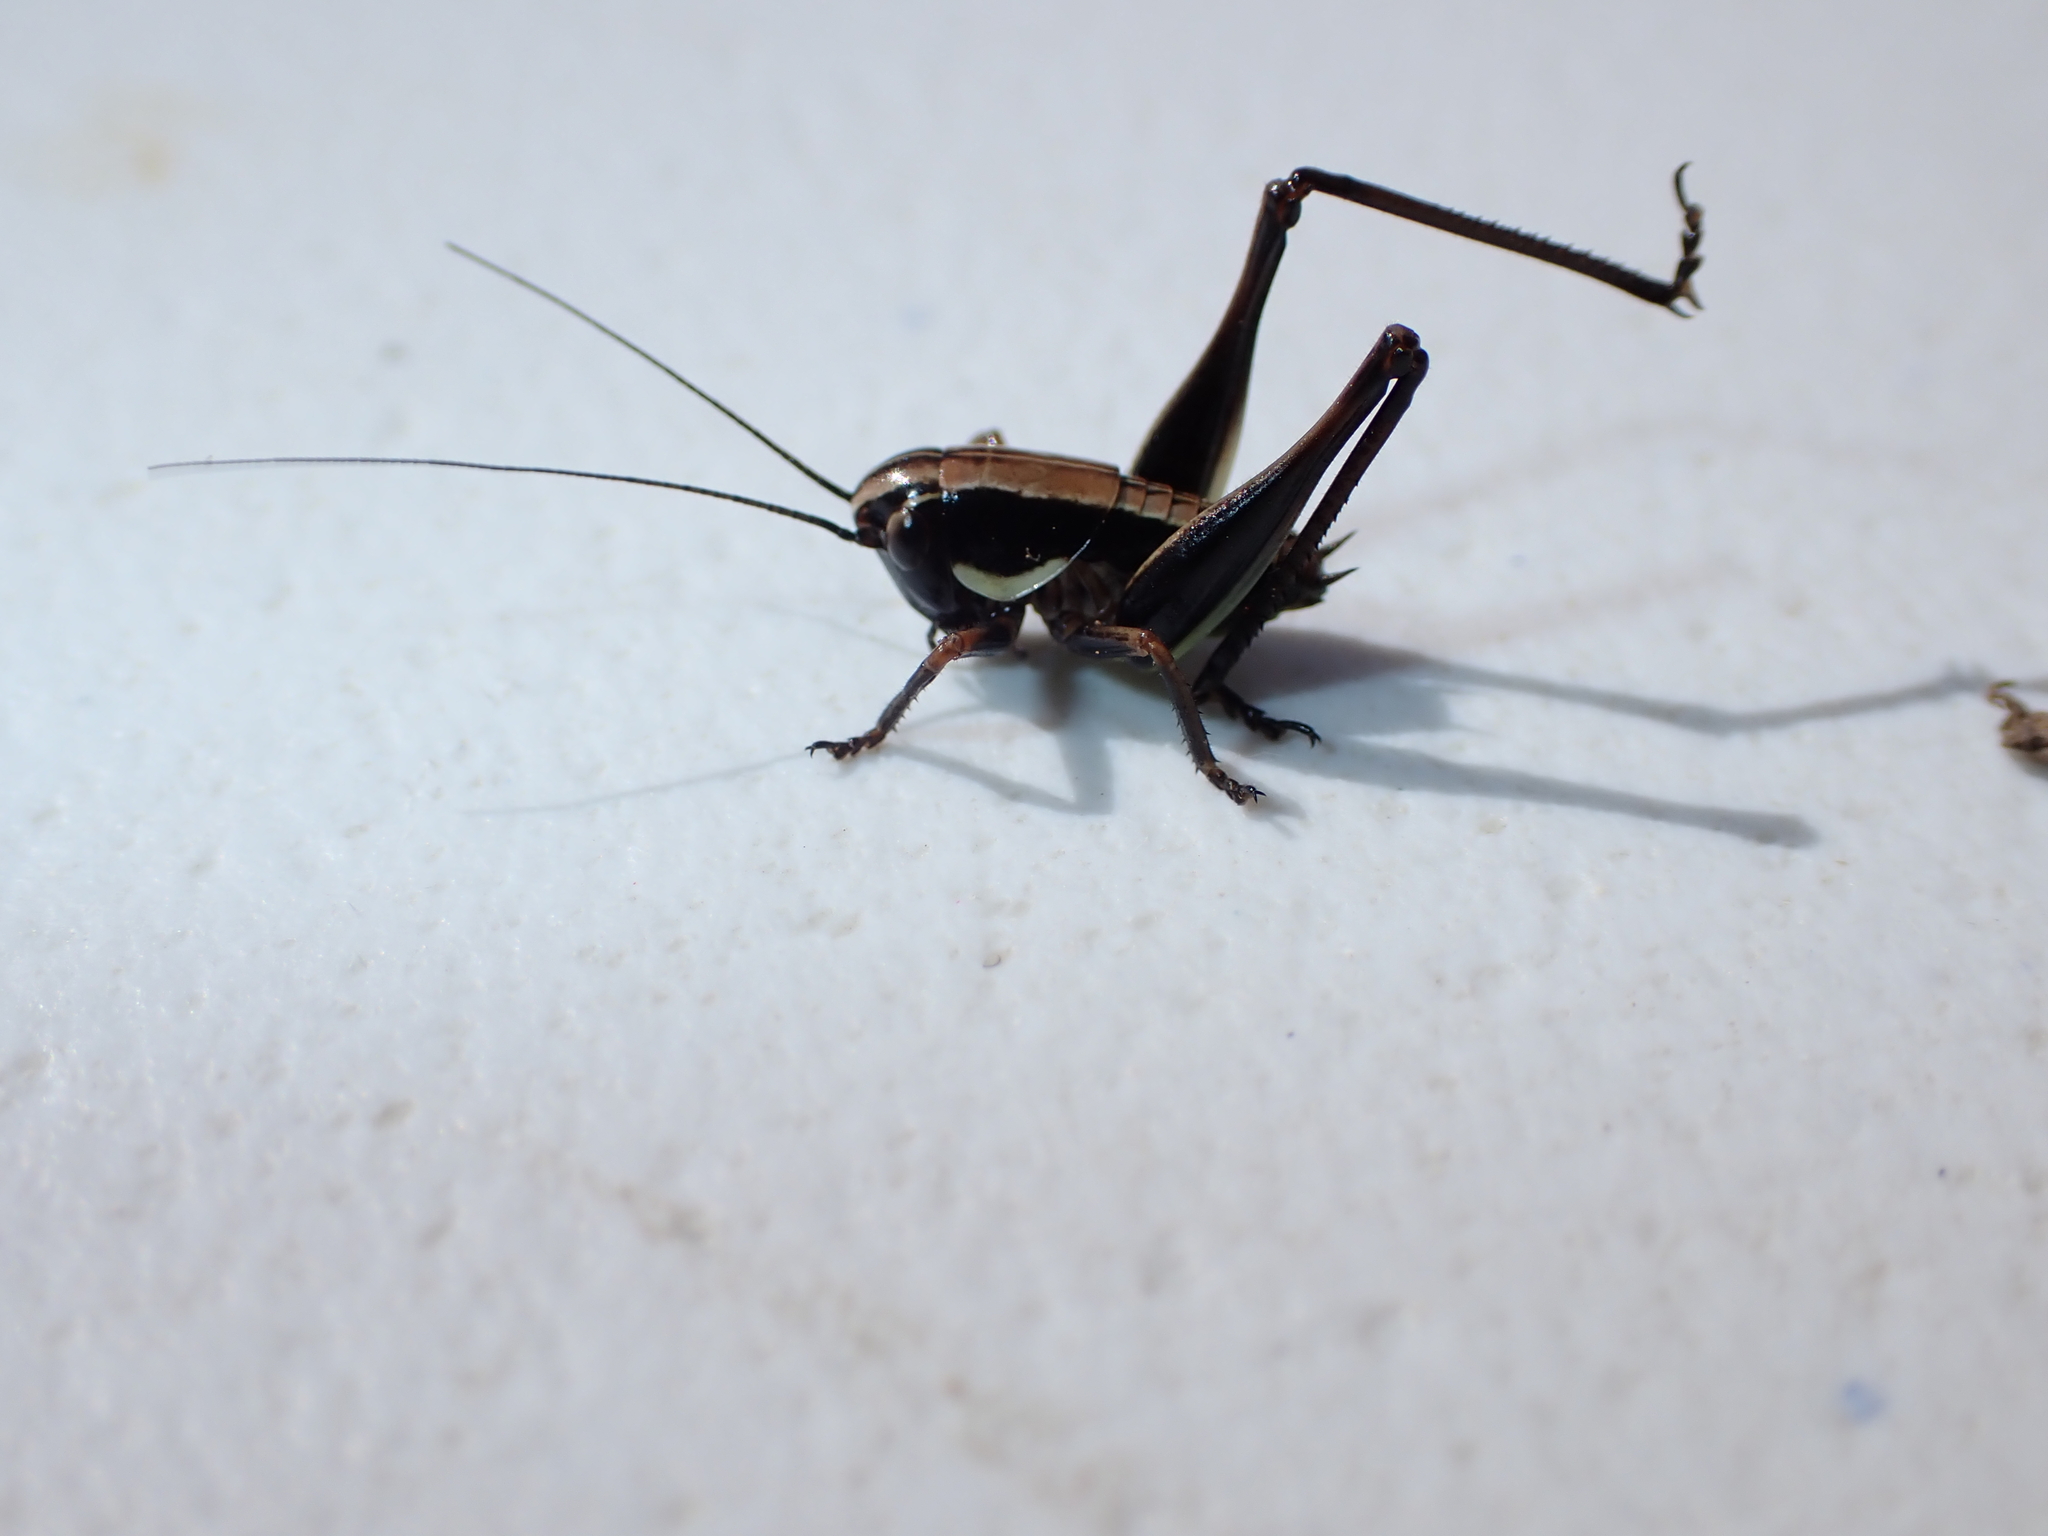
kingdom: Animalia
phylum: Arthropoda
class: Insecta
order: Orthoptera
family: Tettigoniidae
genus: Pholidoptera
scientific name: Pholidoptera femorata
